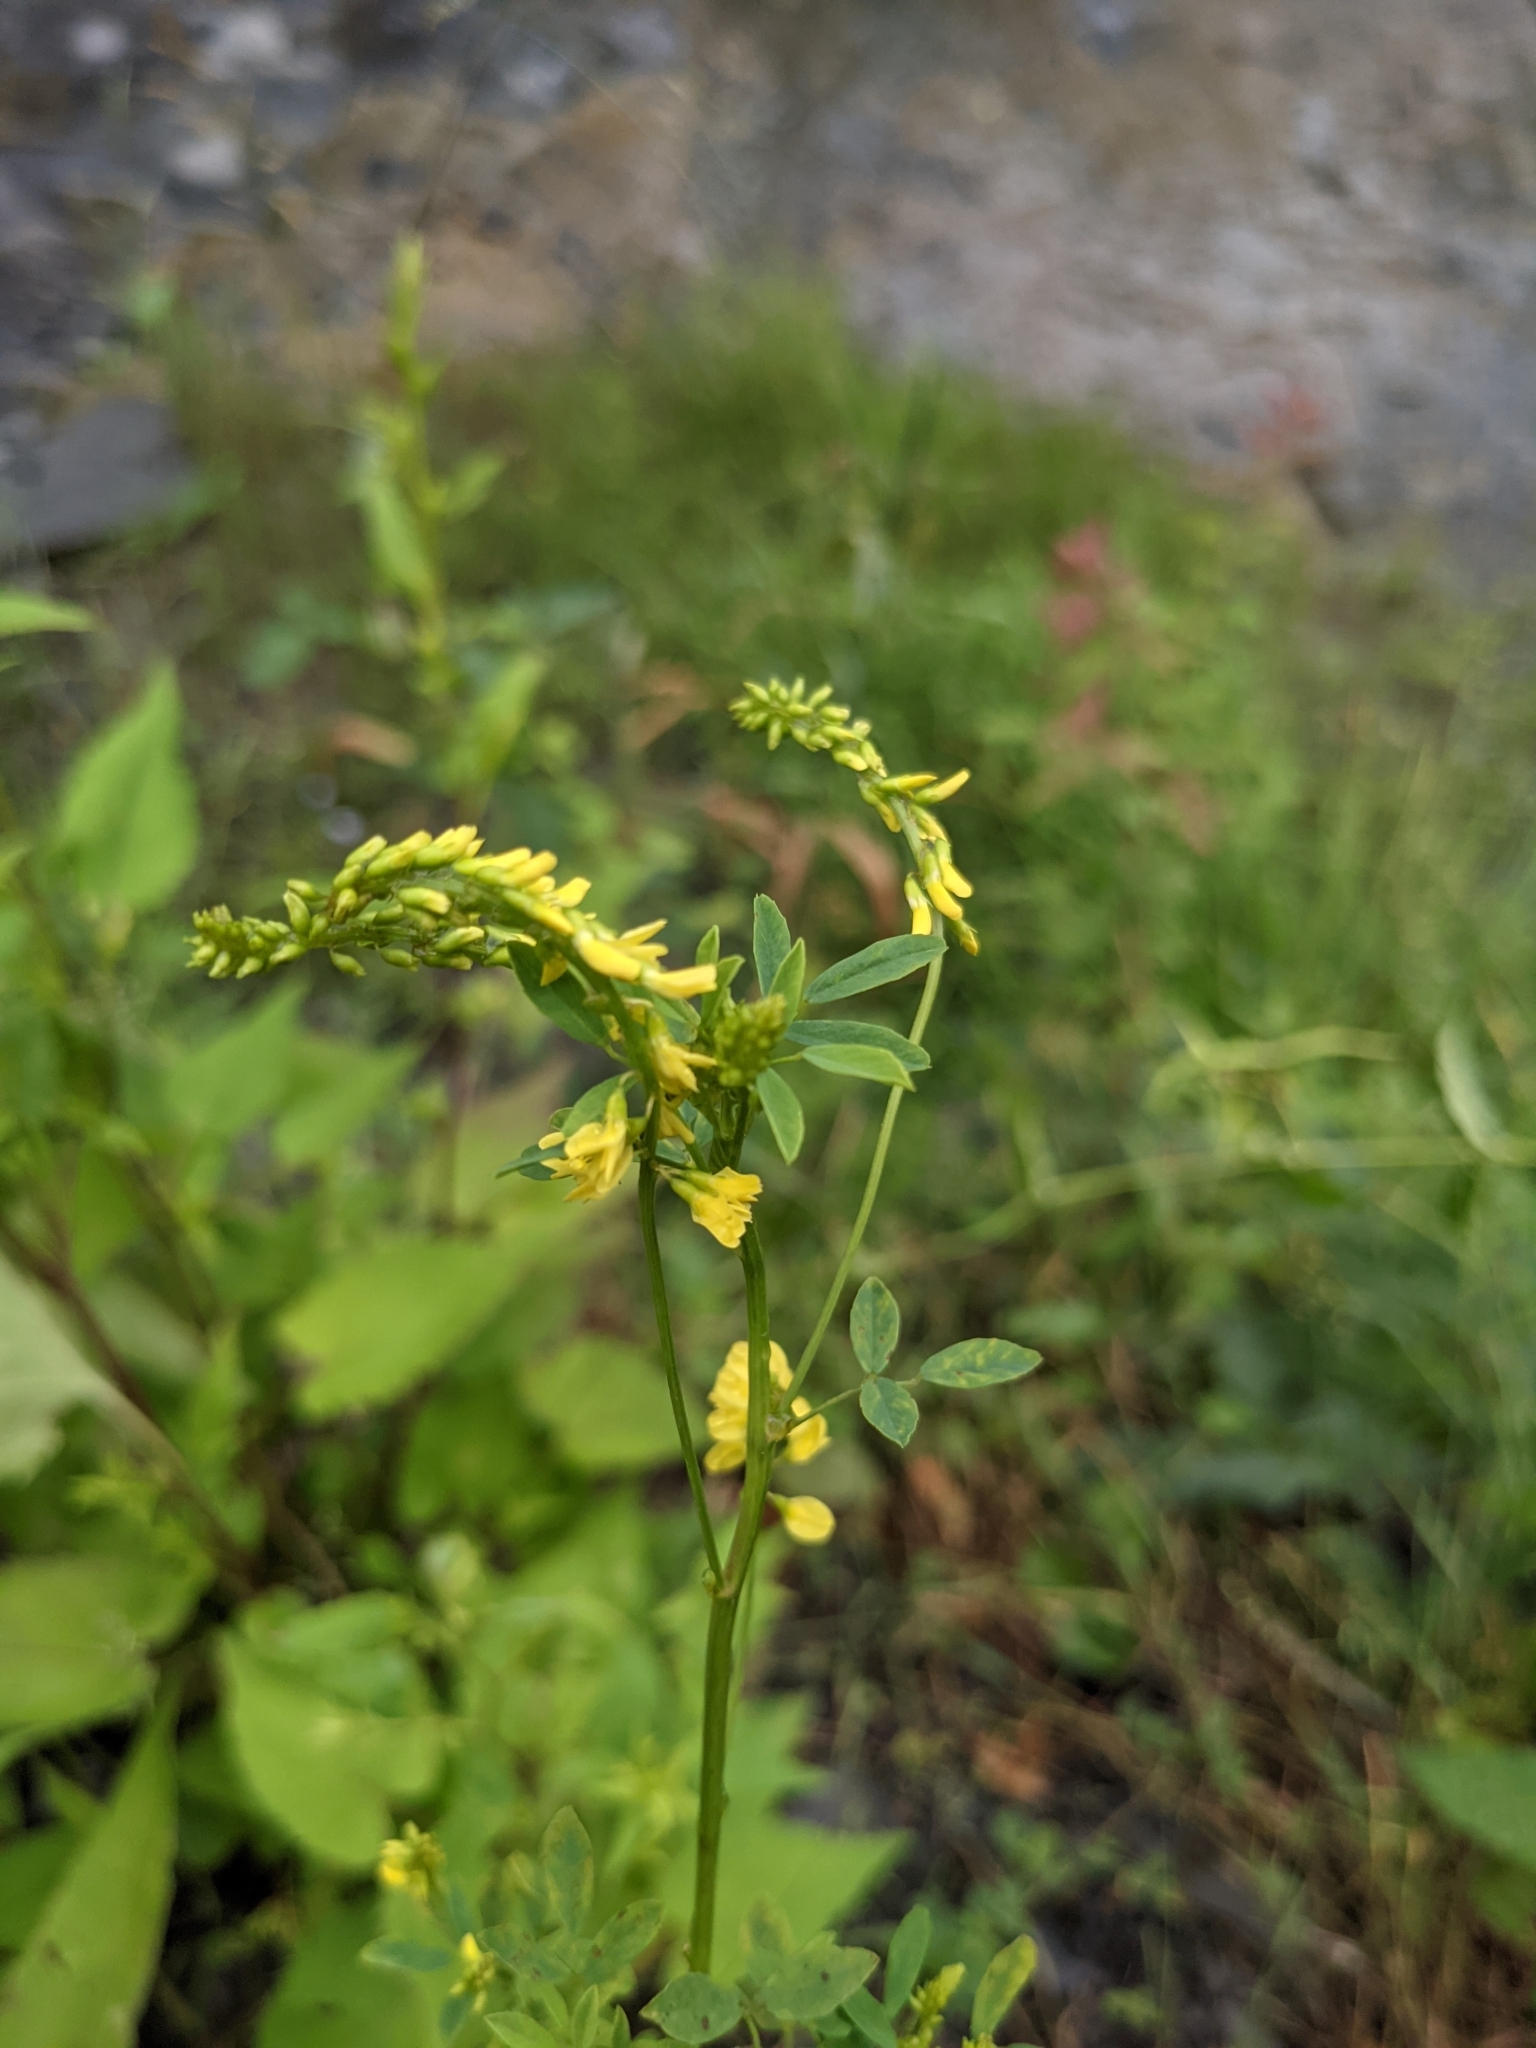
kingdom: Plantae
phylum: Tracheophyta
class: Magnoliopsida
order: Fabales
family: Fabaceae
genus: Melilotus
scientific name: Melilotus officinalis
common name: Sweetclover
